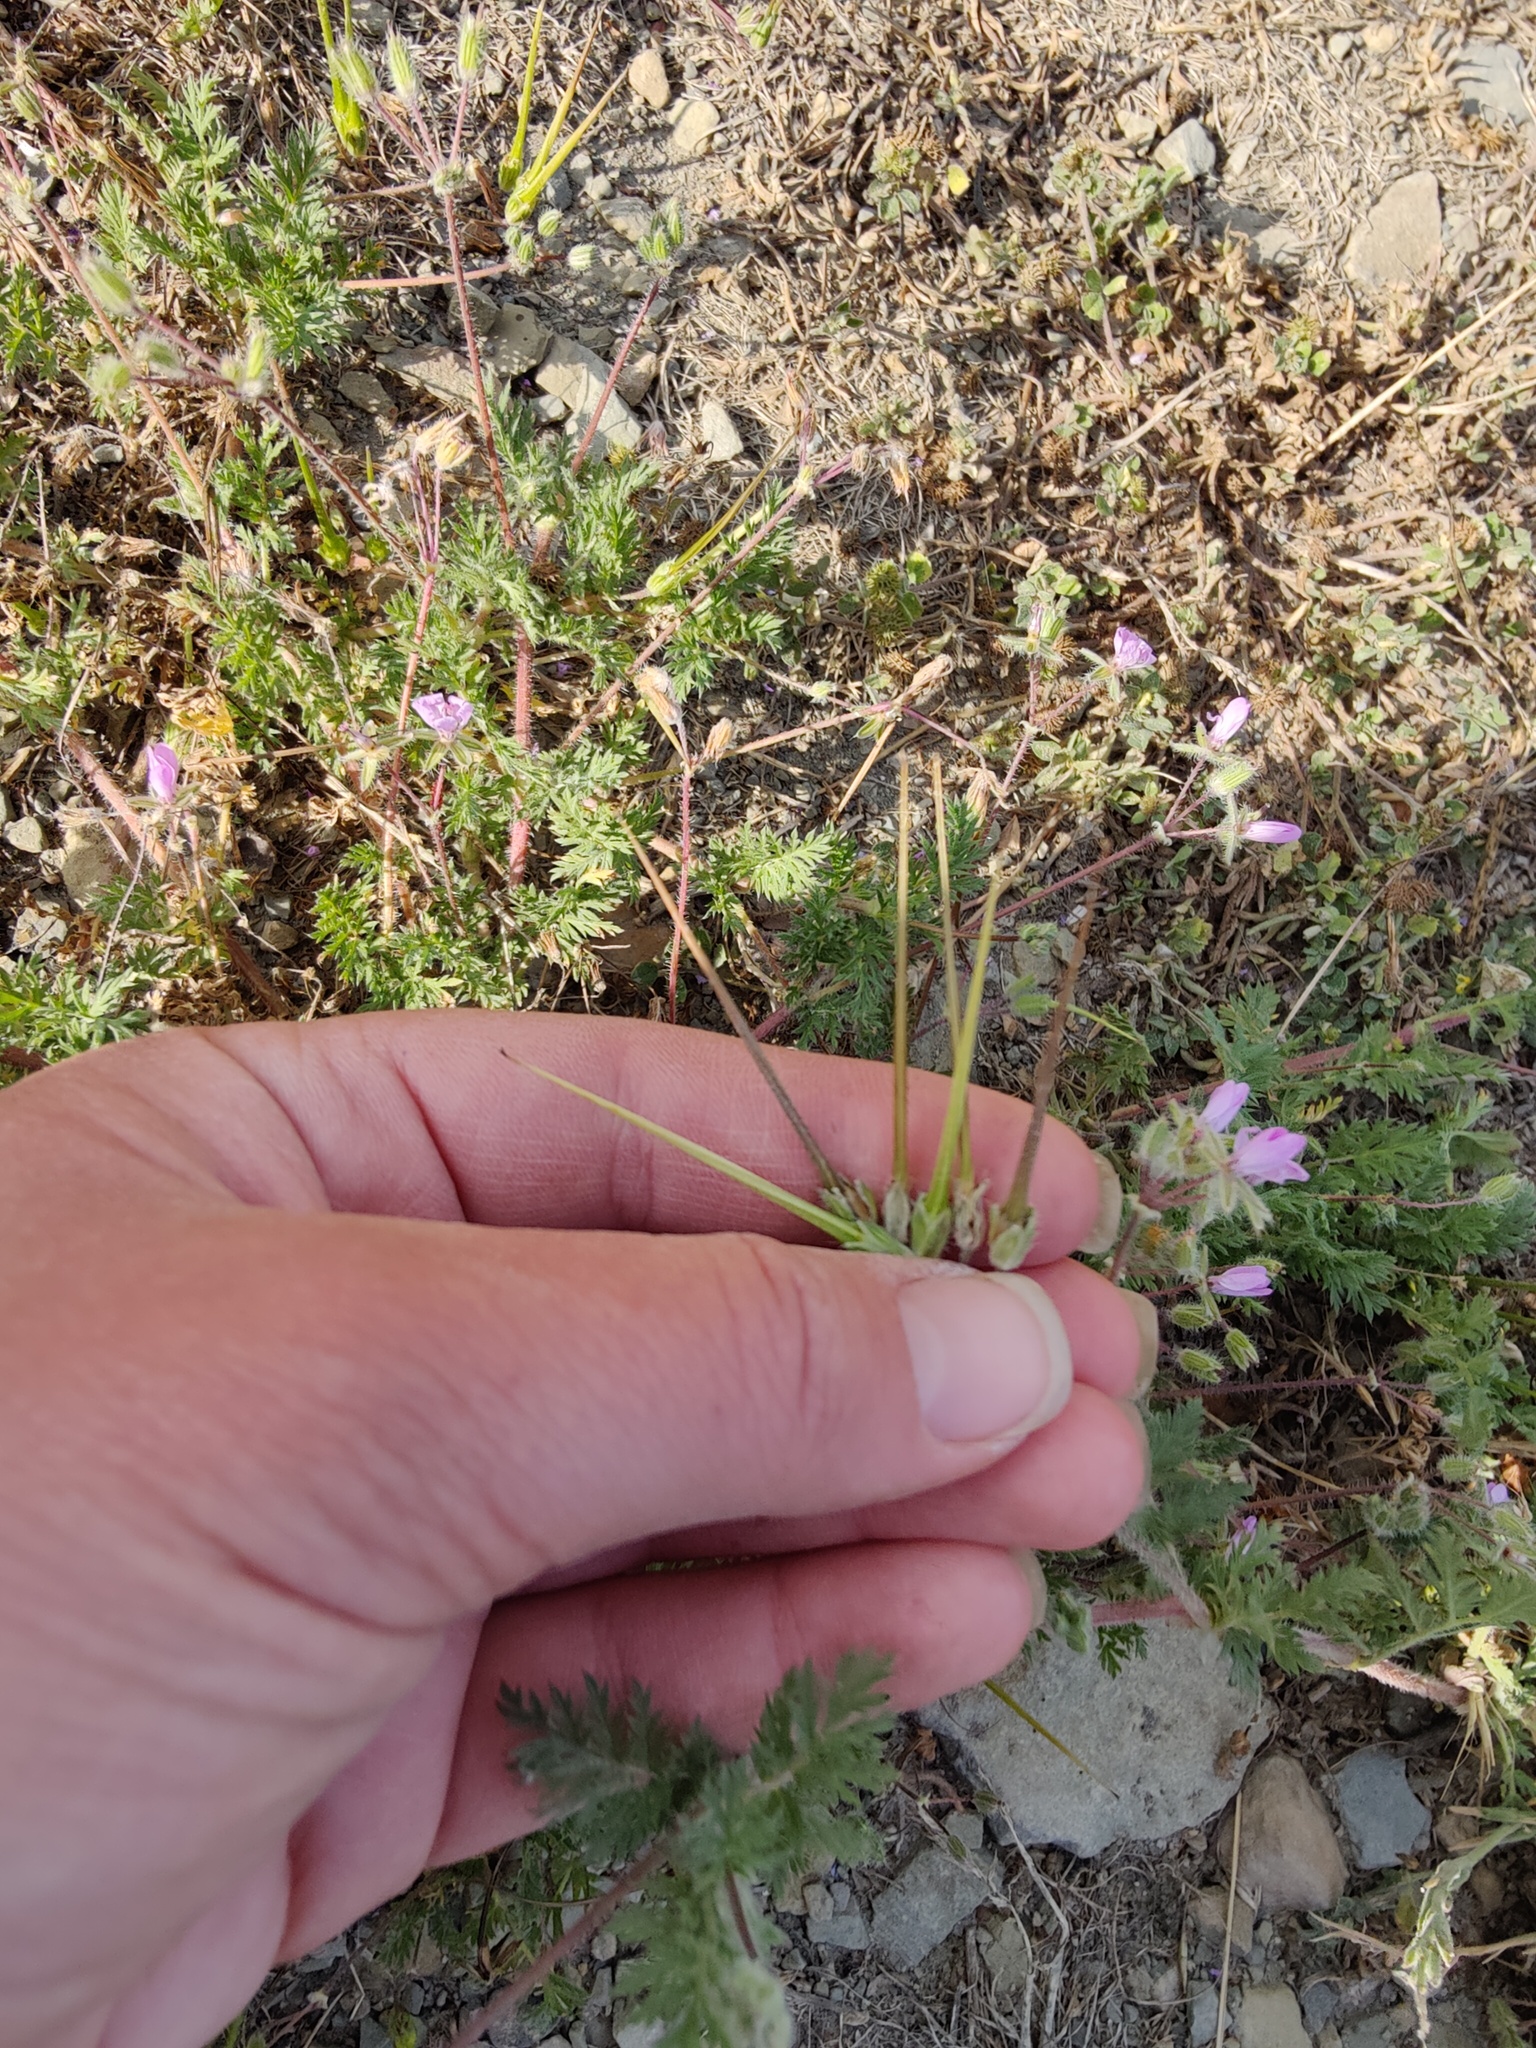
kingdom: Plantae
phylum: Tracheophyta
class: Magnoliopsida
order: Geraniales
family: Geraniaceae
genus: Erodium
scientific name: Erodium cicutarium
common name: Common stork's-bill
